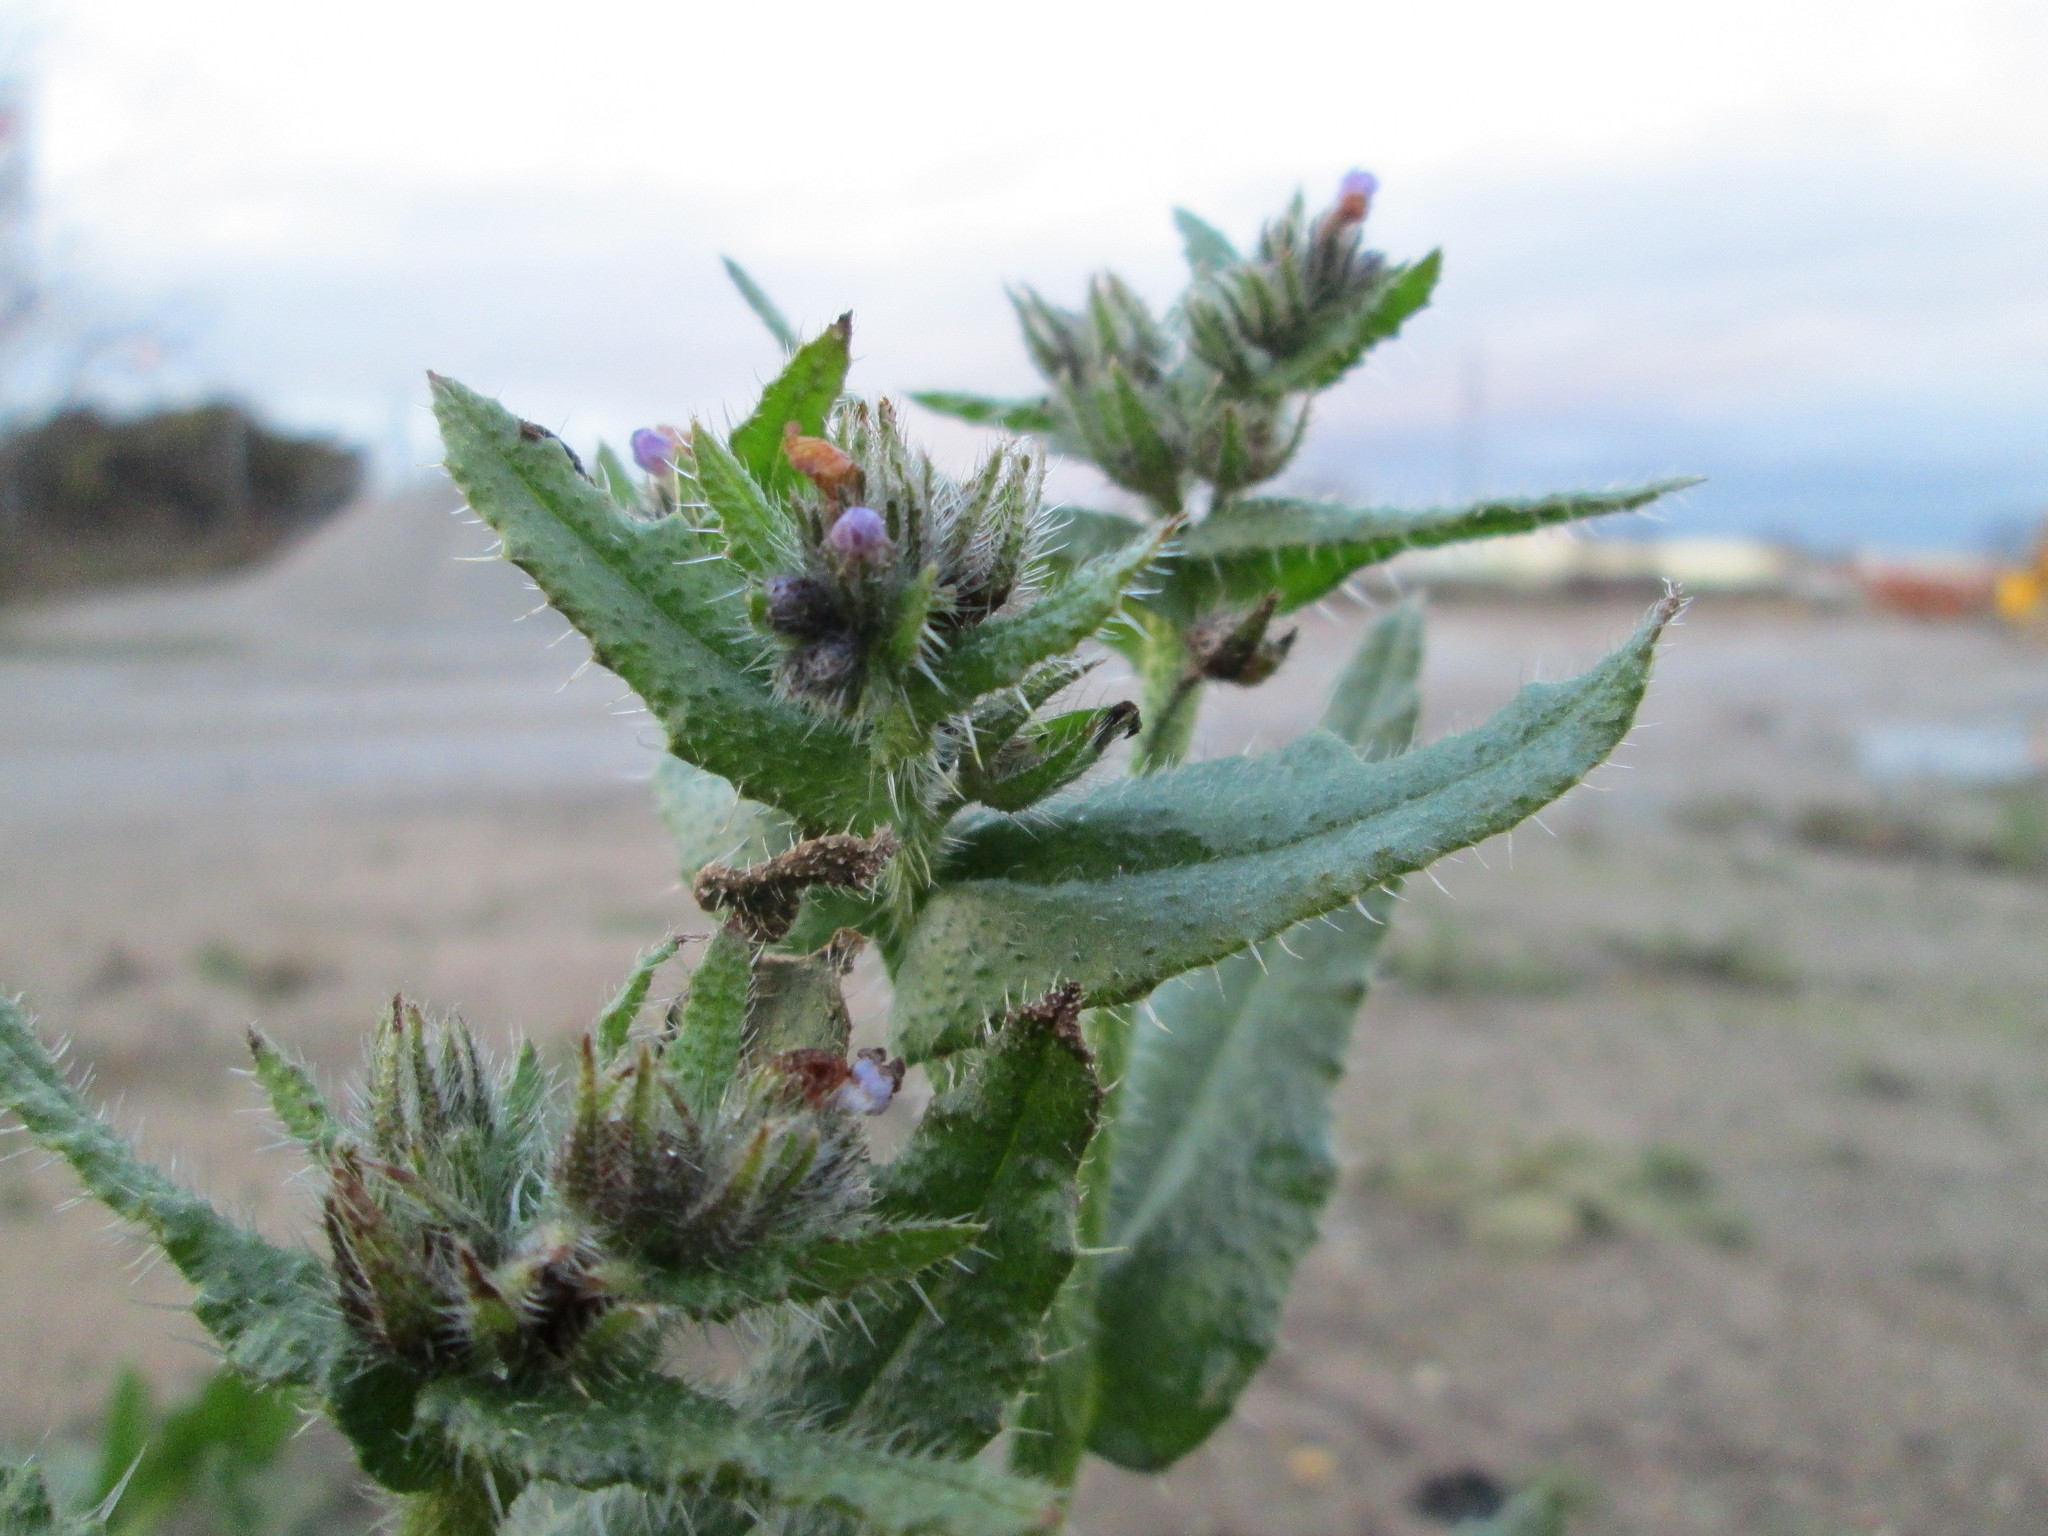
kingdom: Plantae
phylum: Tracheophyta
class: Magnoliopsida
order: Boraginales
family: Boraginaceae
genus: Lycopsis
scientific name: Lycopsis arvensis
